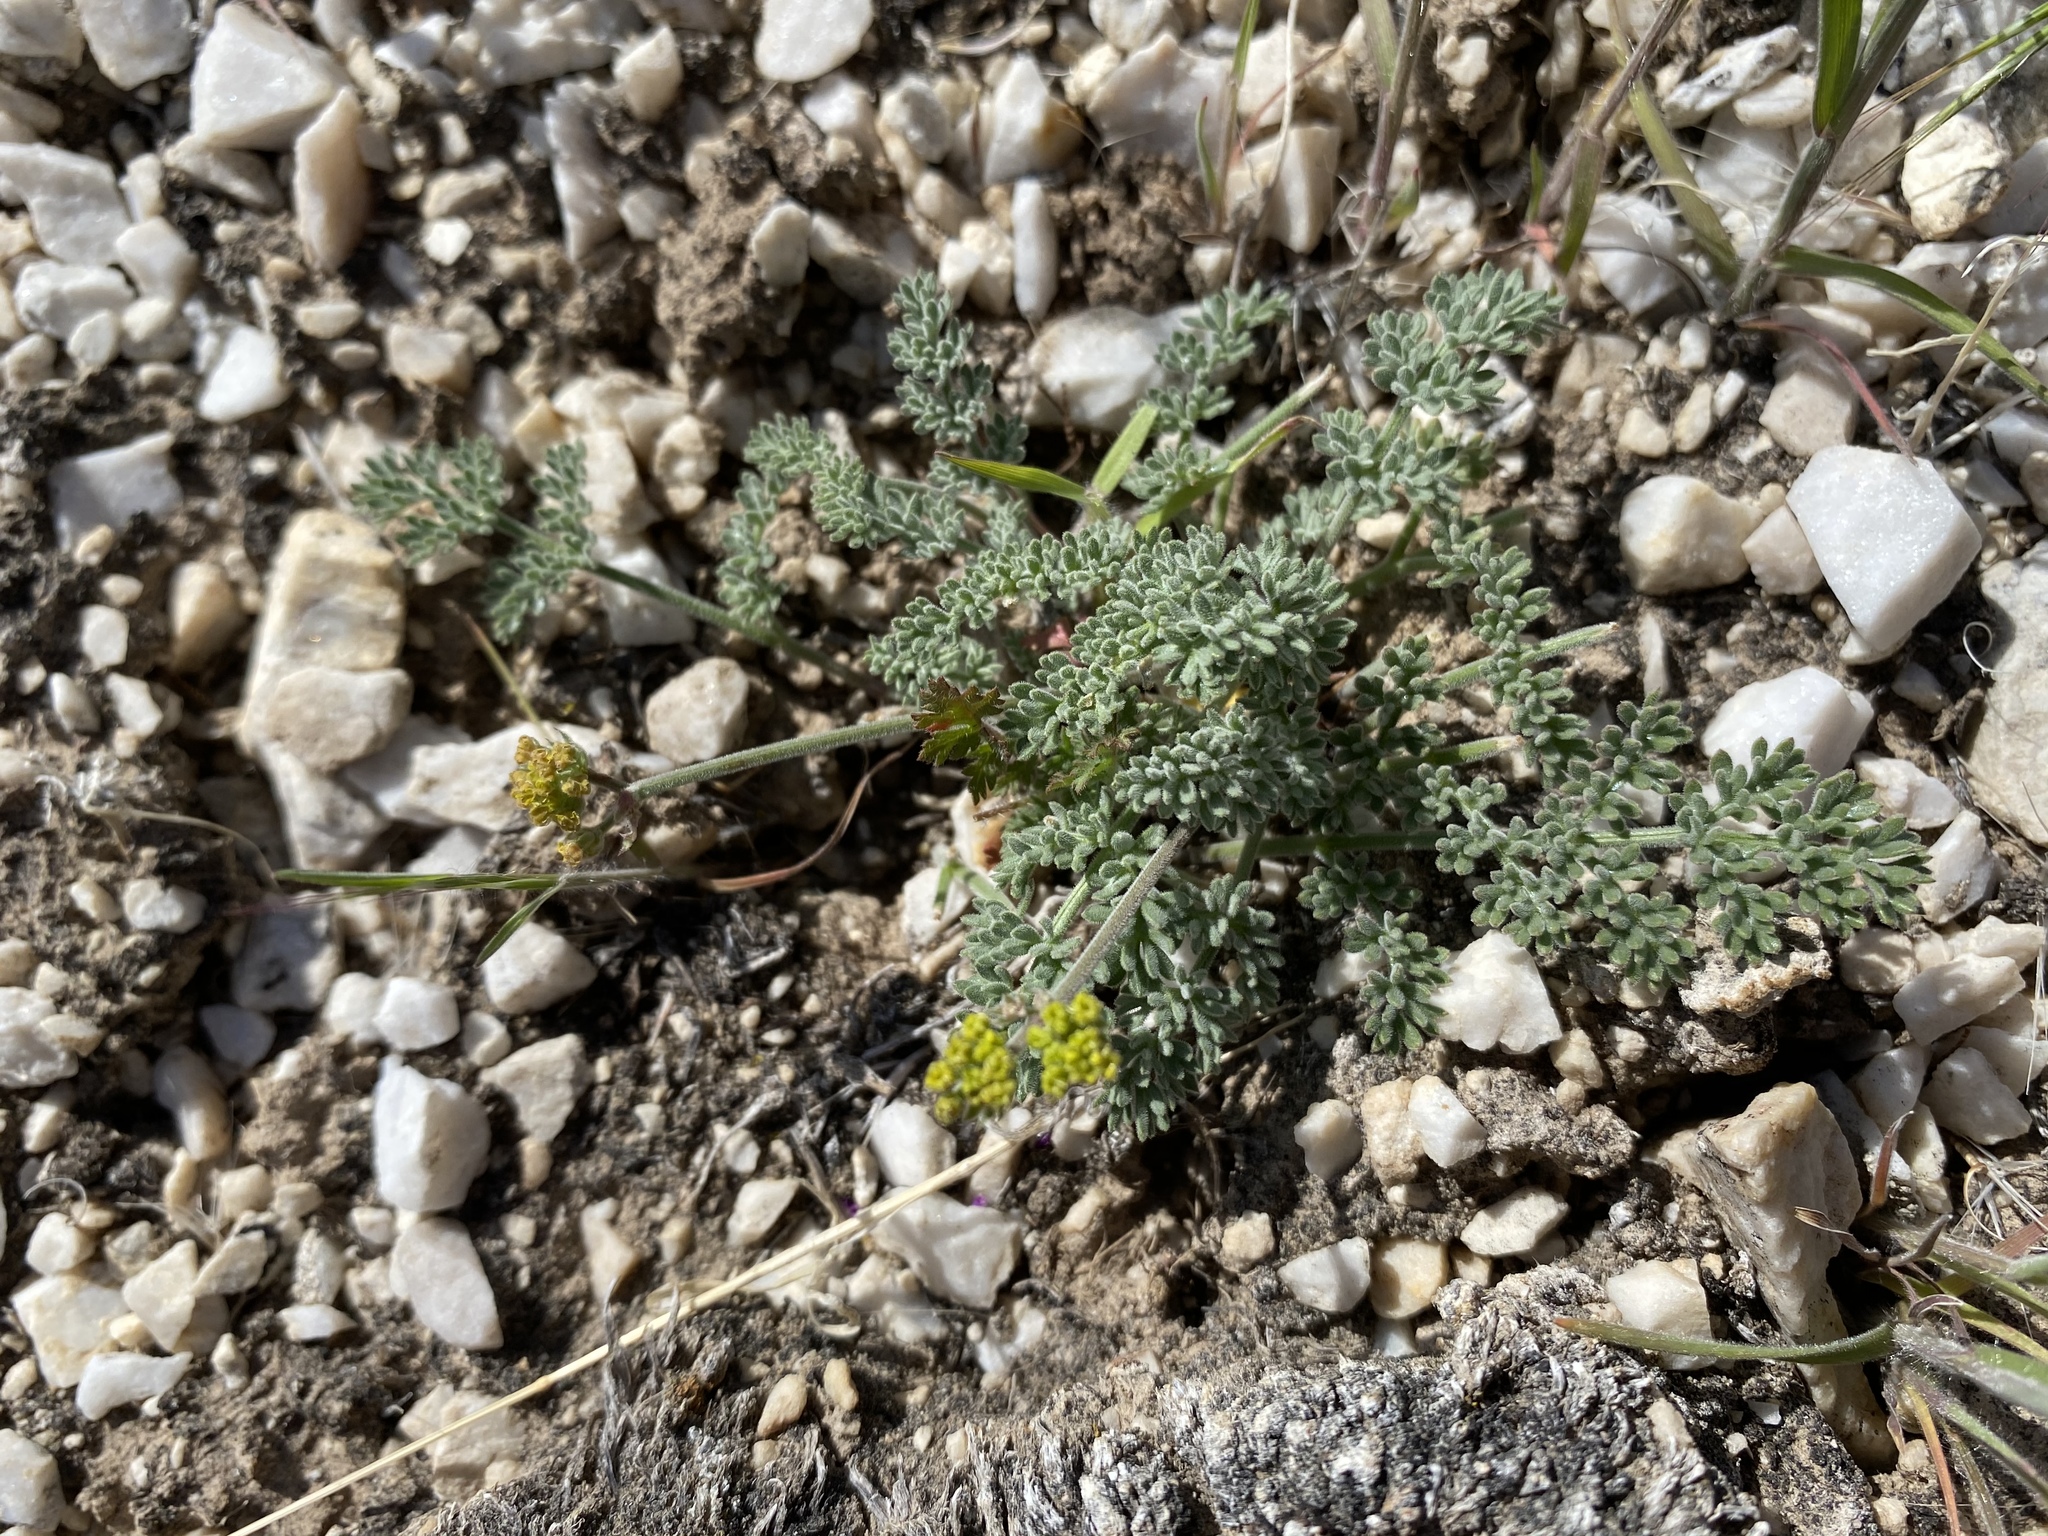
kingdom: Plantae
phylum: Tracheophyta
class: Magnoliopsida
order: Apiales
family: Apiaceae
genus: Lomatium
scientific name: Lomatium foeniculaceum
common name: Desert-parsley
